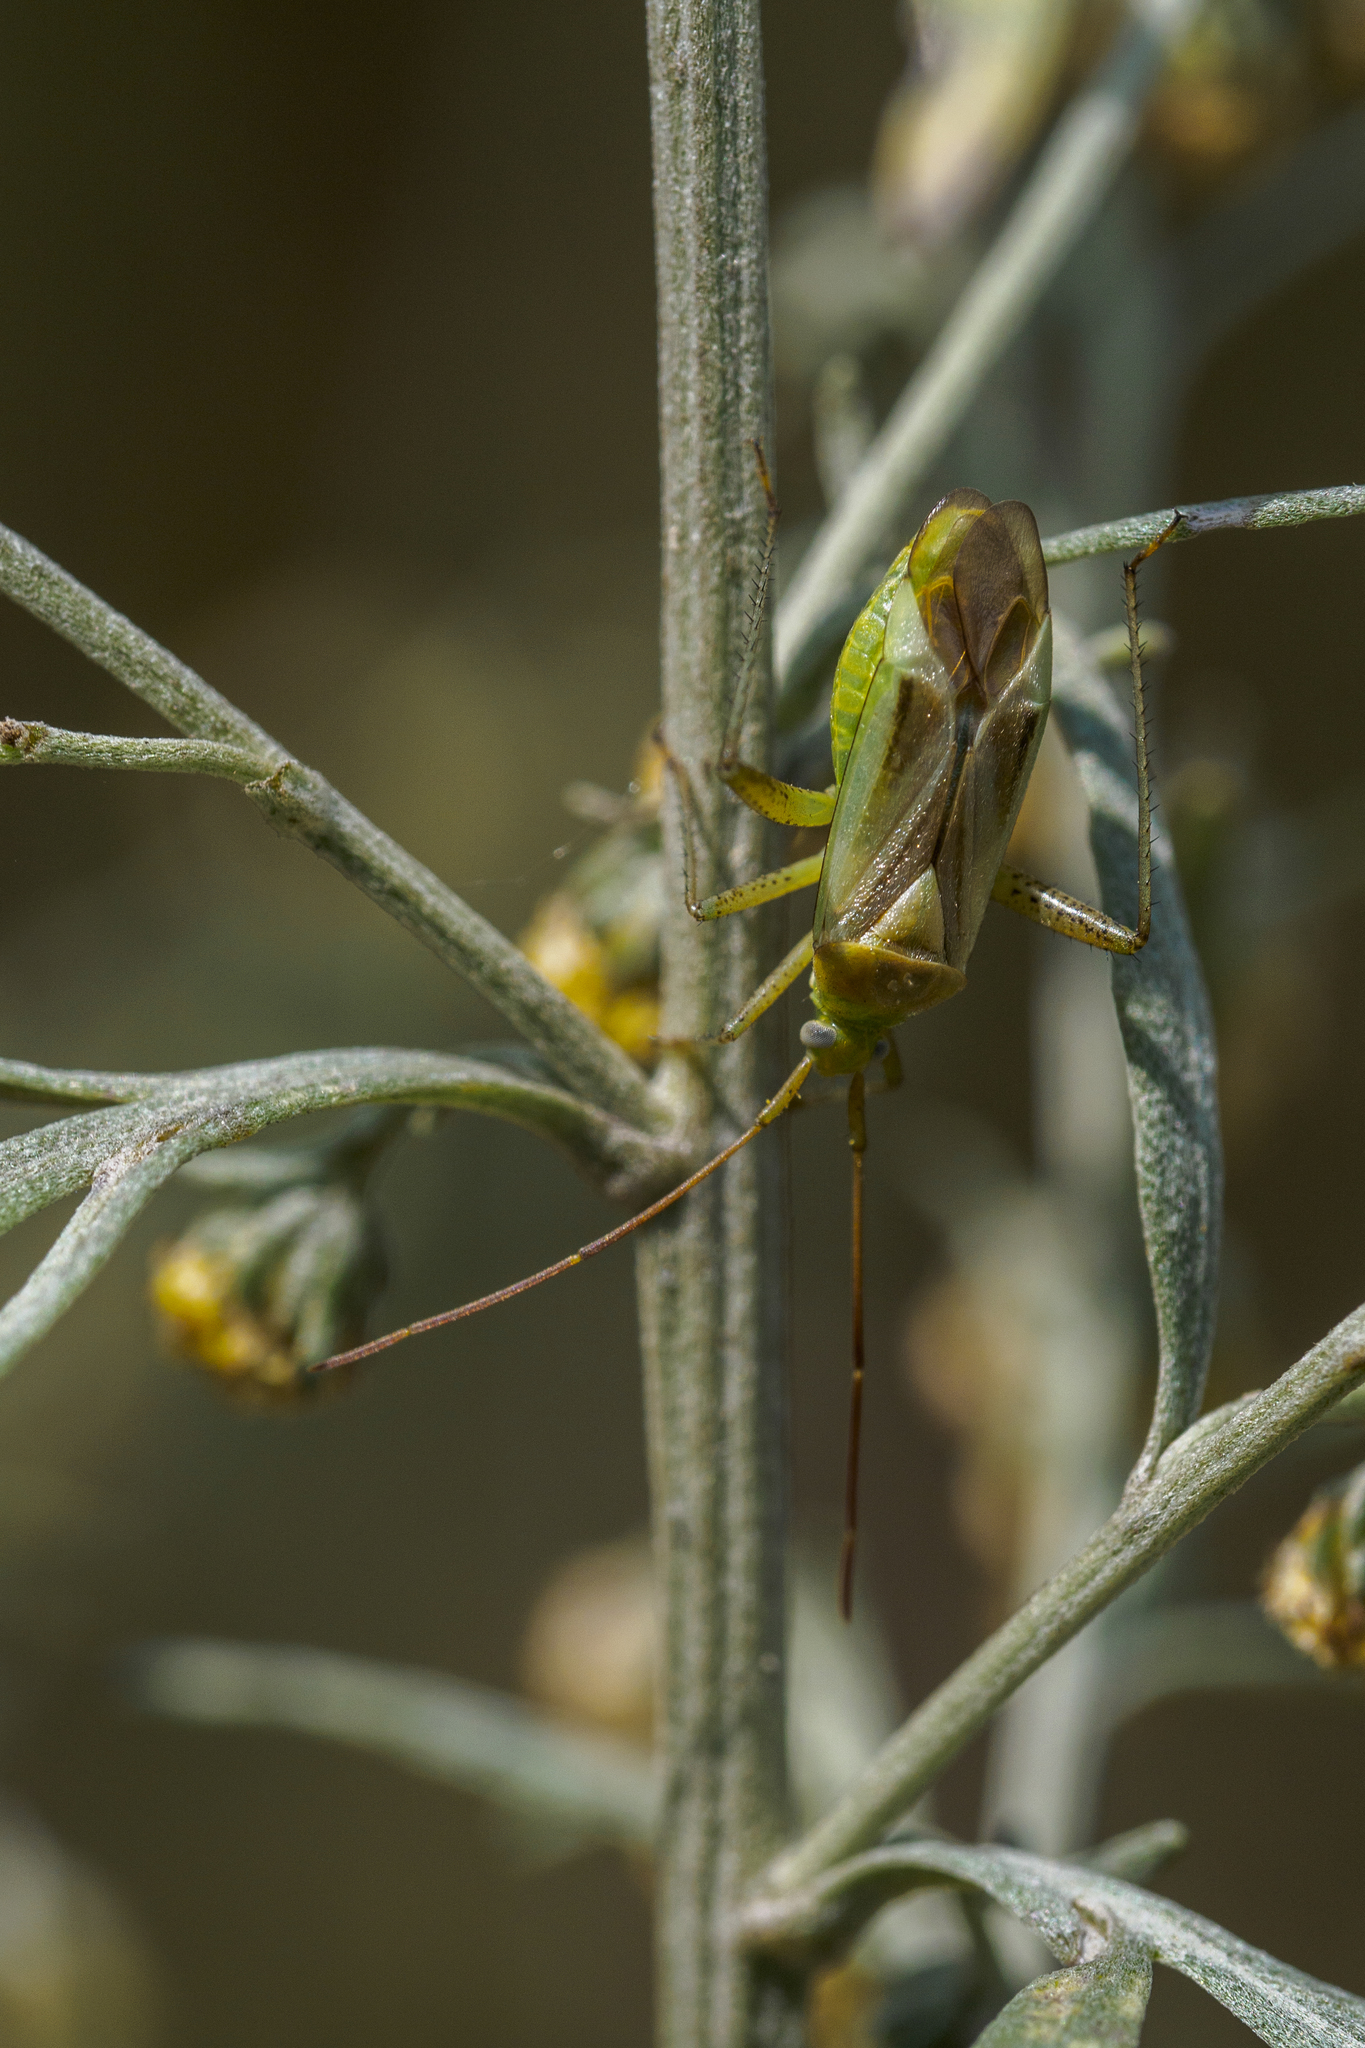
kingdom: Animalia
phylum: Arthropoda
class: Insecta
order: Hemiptera
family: Miridae
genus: Adelphocoris
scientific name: Adelphocoris lineolatus
